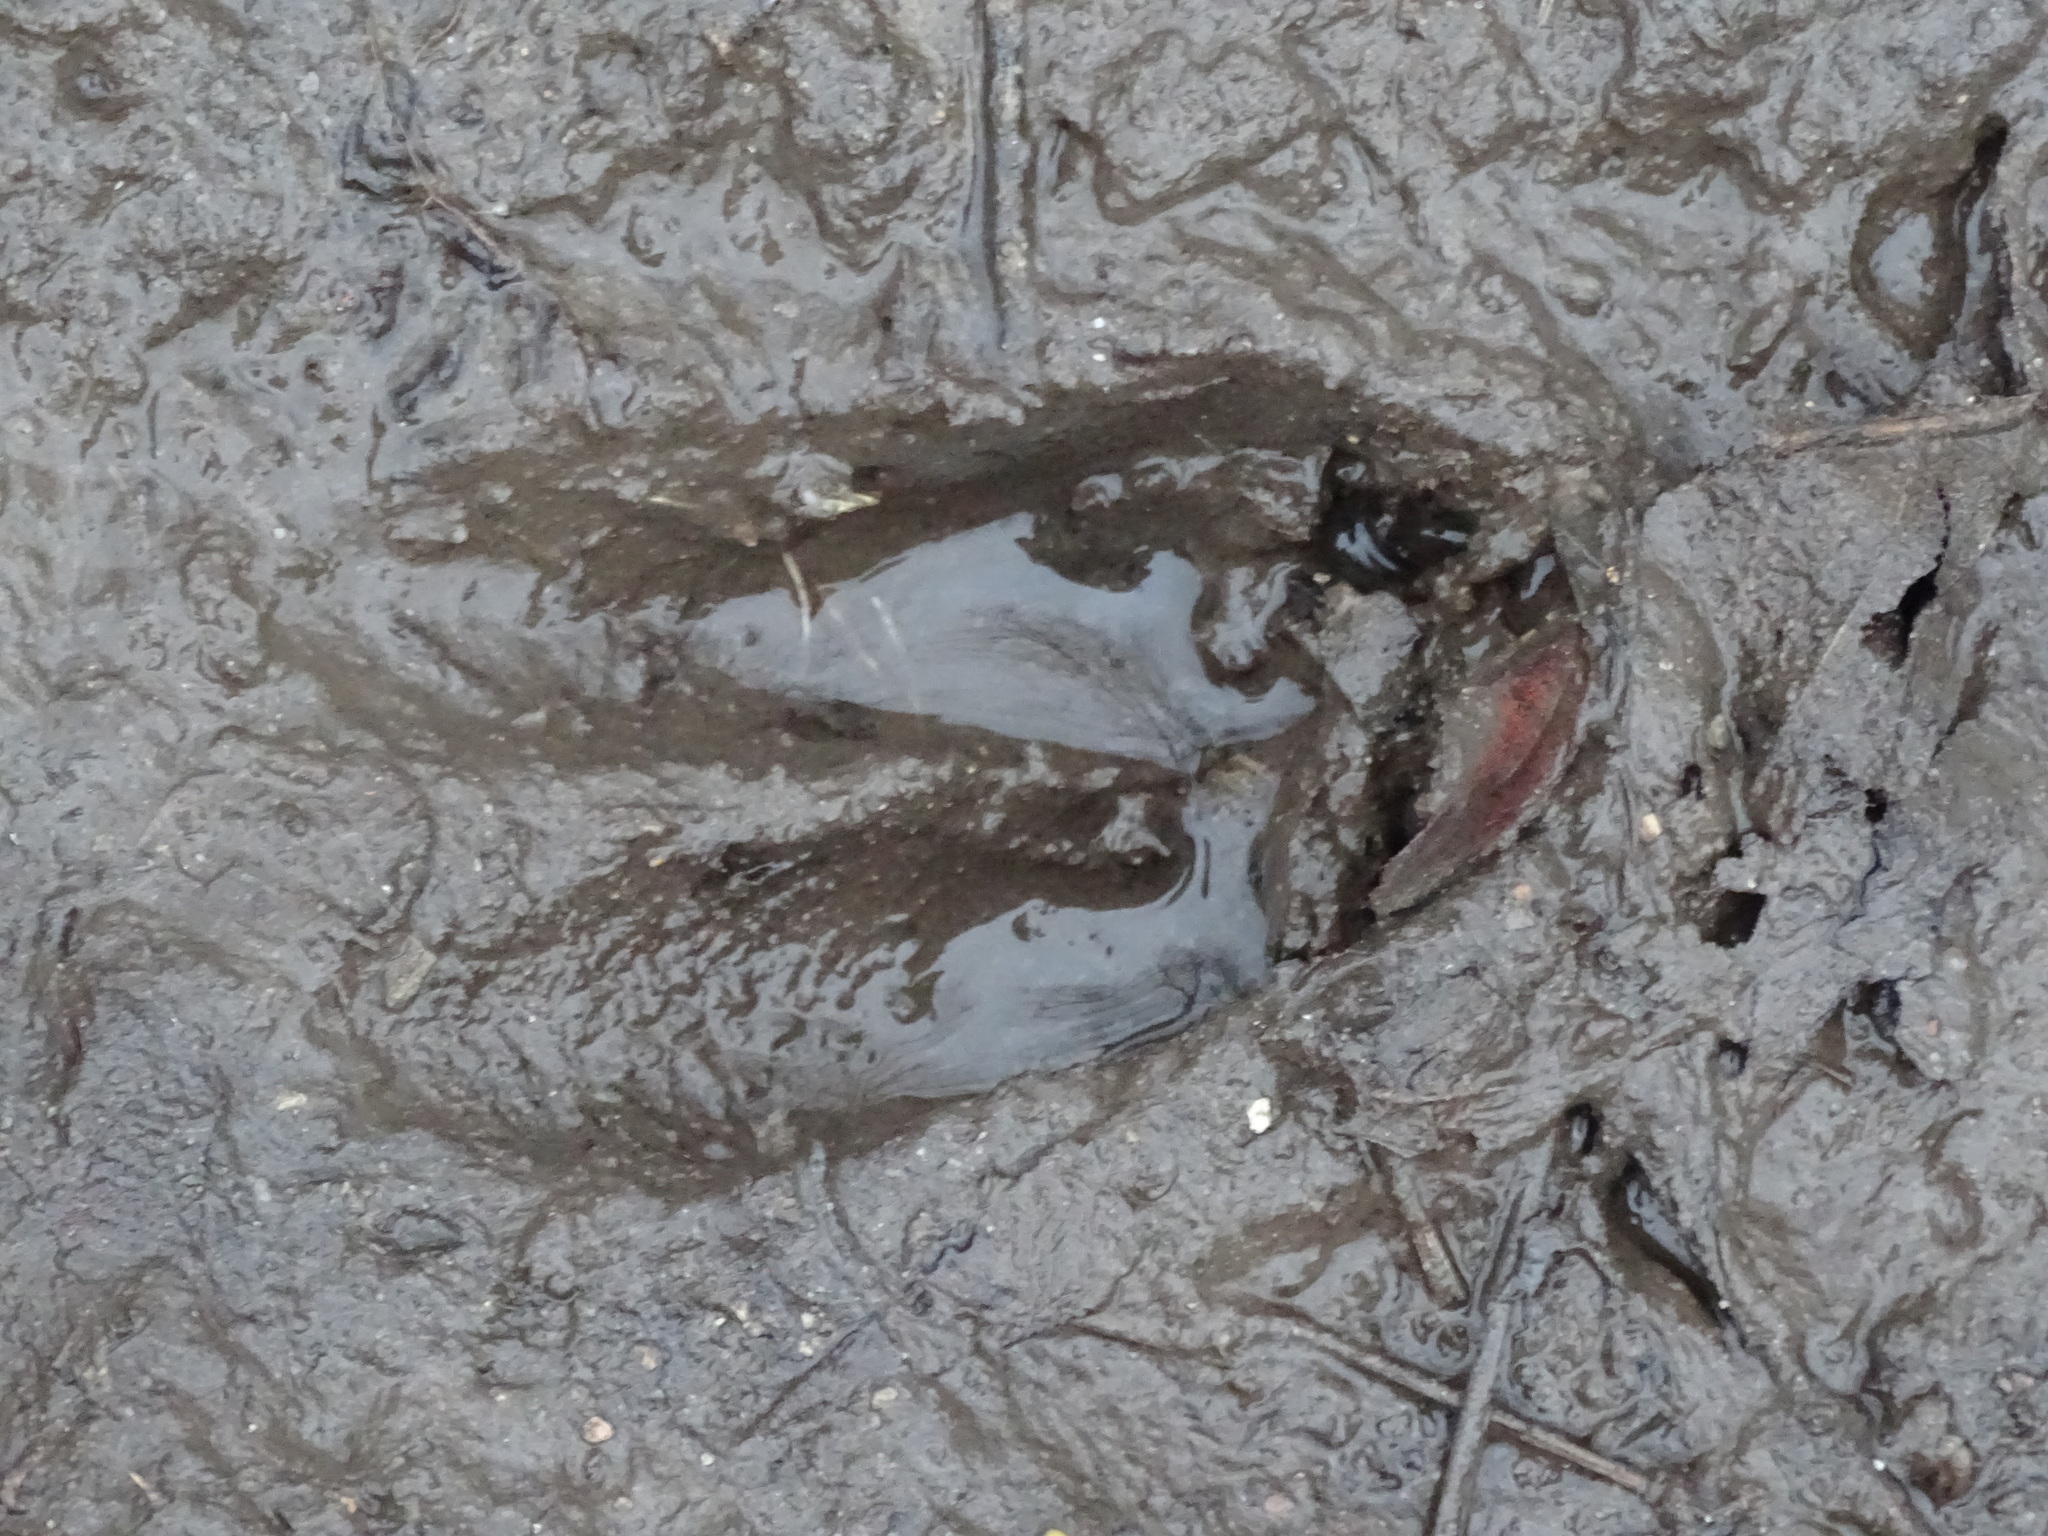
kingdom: Animalia
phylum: Chordata
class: Mammalia
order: Artiodactyla
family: Cervidae
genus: Odocoileus
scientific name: Odocoileus virginianus
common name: White-tailed deer
